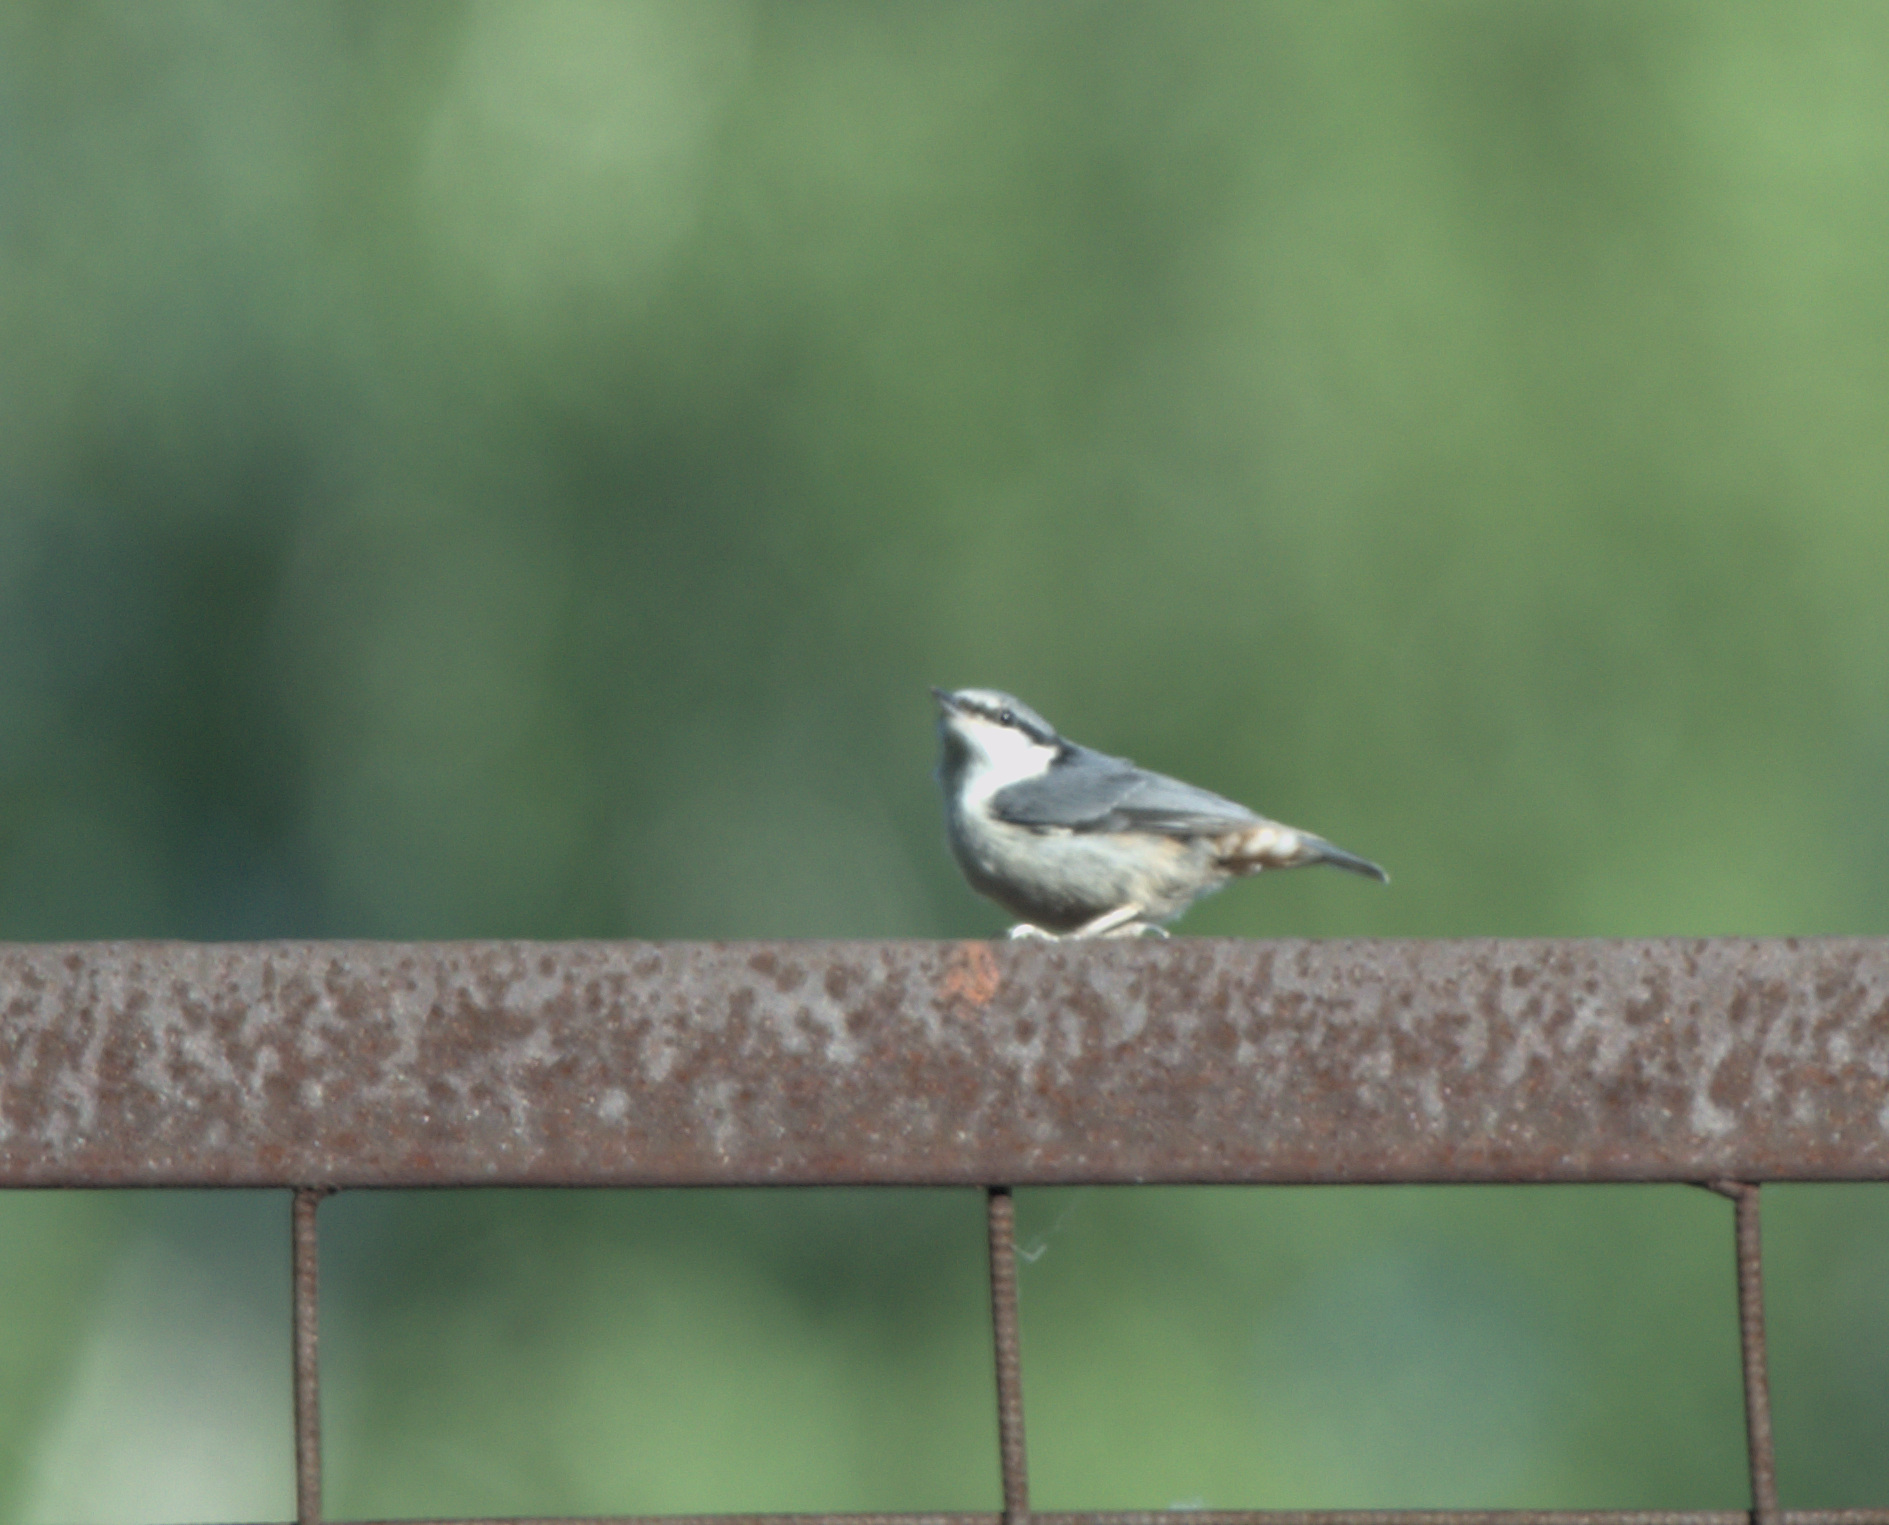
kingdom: Animalia
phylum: Chordata
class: Aves
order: Passeriformes
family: Sittidae
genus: Sitta
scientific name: Sitta europaea
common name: Eurasian nuthatch
